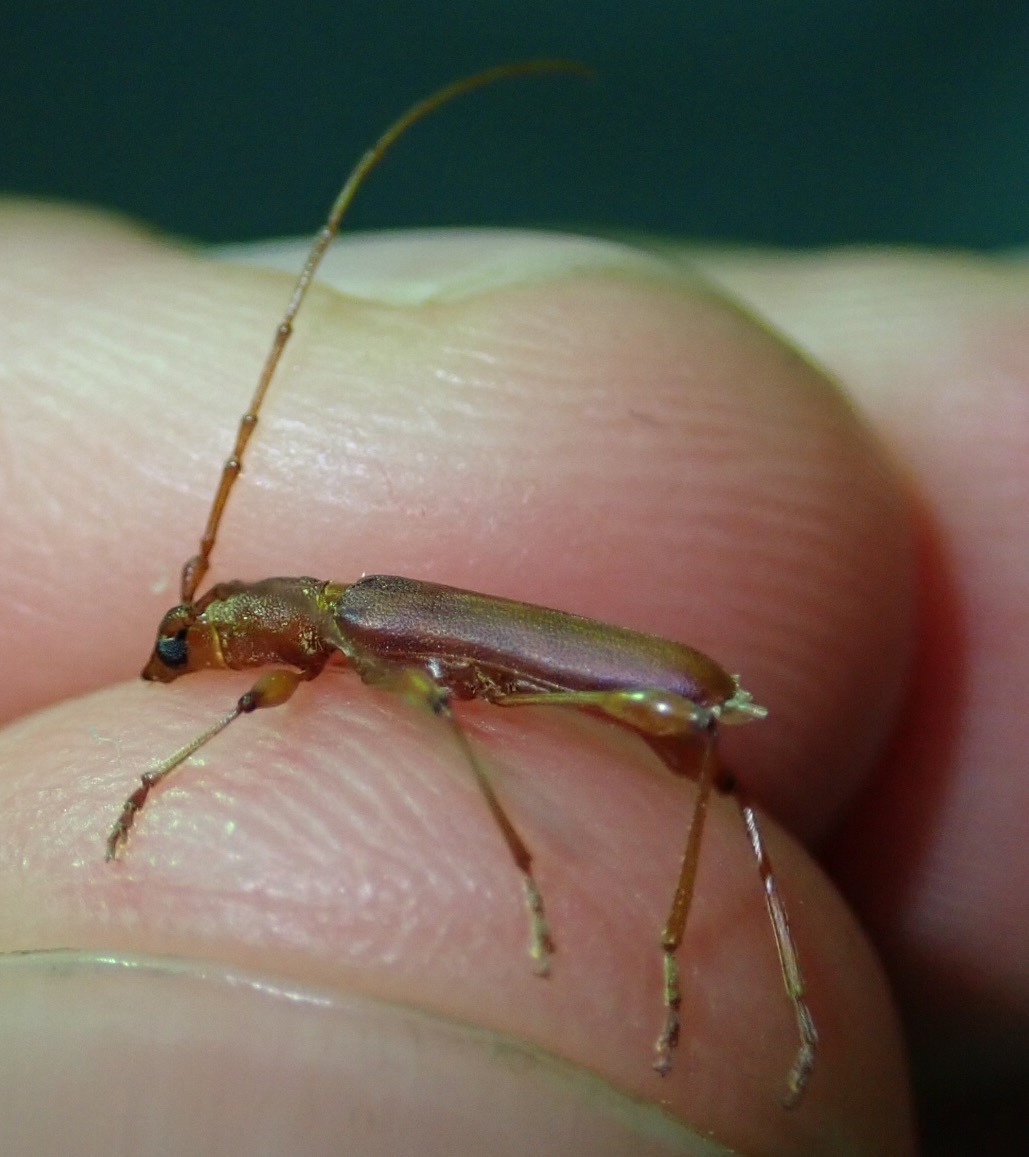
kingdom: Animalia
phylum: Arthropoda
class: Insecta
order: Coleoptera
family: Cerambycidae
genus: Cordylomera
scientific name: Cordylomera filicornis
